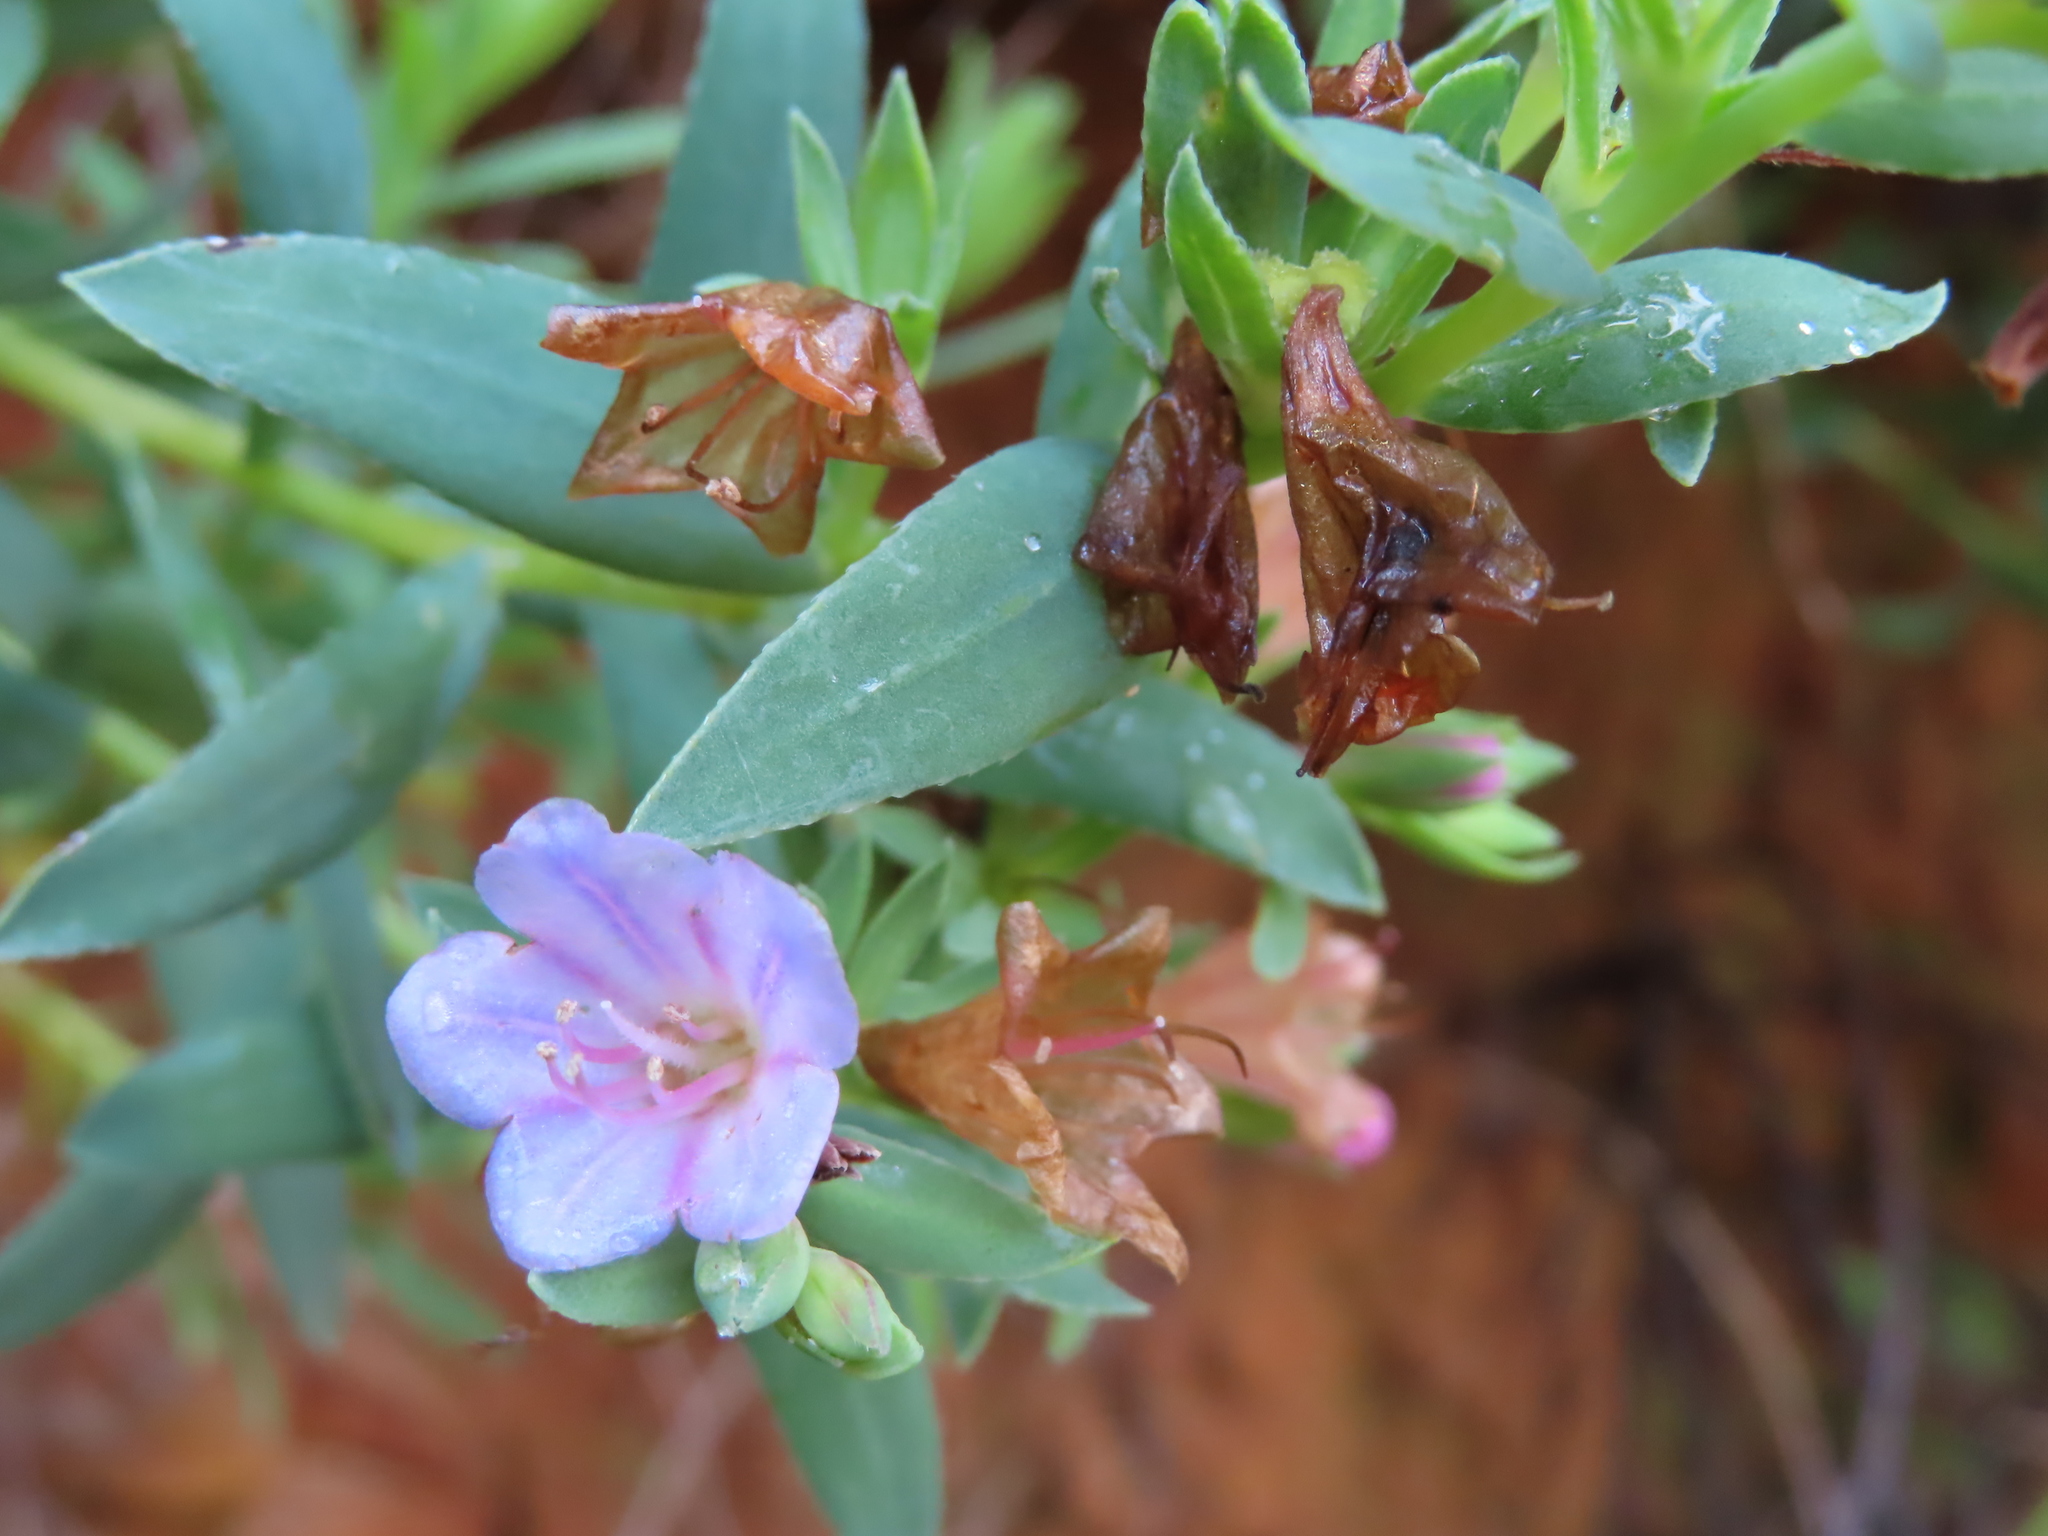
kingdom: Plantae
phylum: Tracheophyta
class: Magnoliopsida
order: Boraginales
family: Boraginaceae
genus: Lobostemon
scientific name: Lobostemon fruticosus
